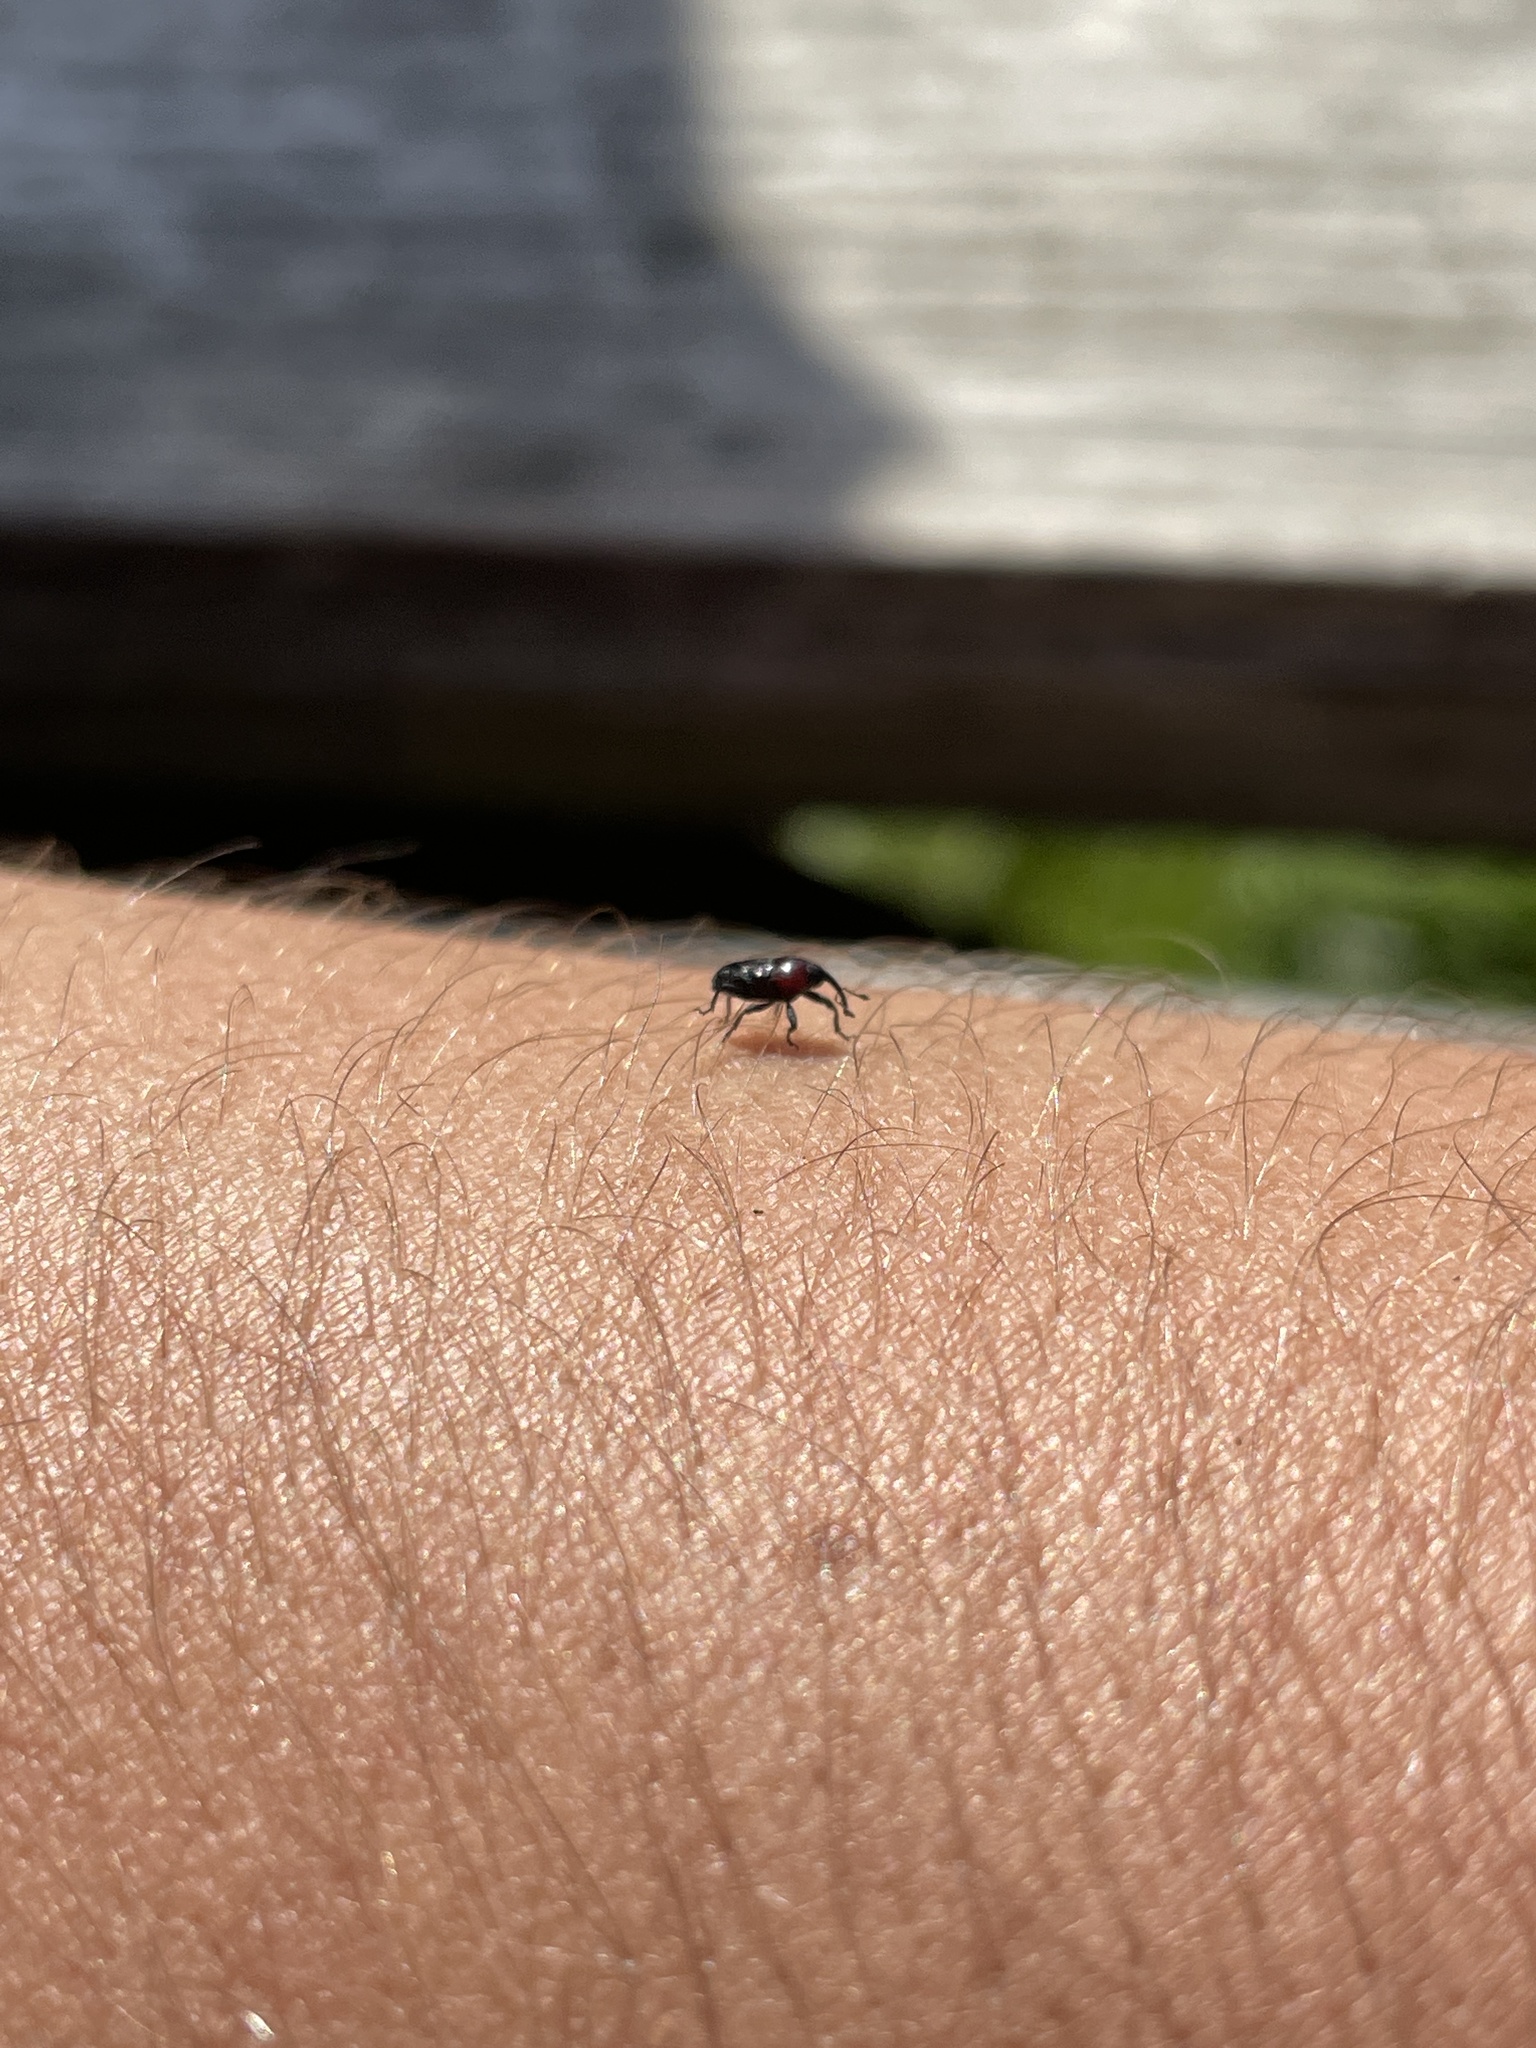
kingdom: Animalia
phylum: Arthropoda
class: Insecta
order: Coleoptera
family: Curculionidae
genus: Madarellus
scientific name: Madarellus undulatus
